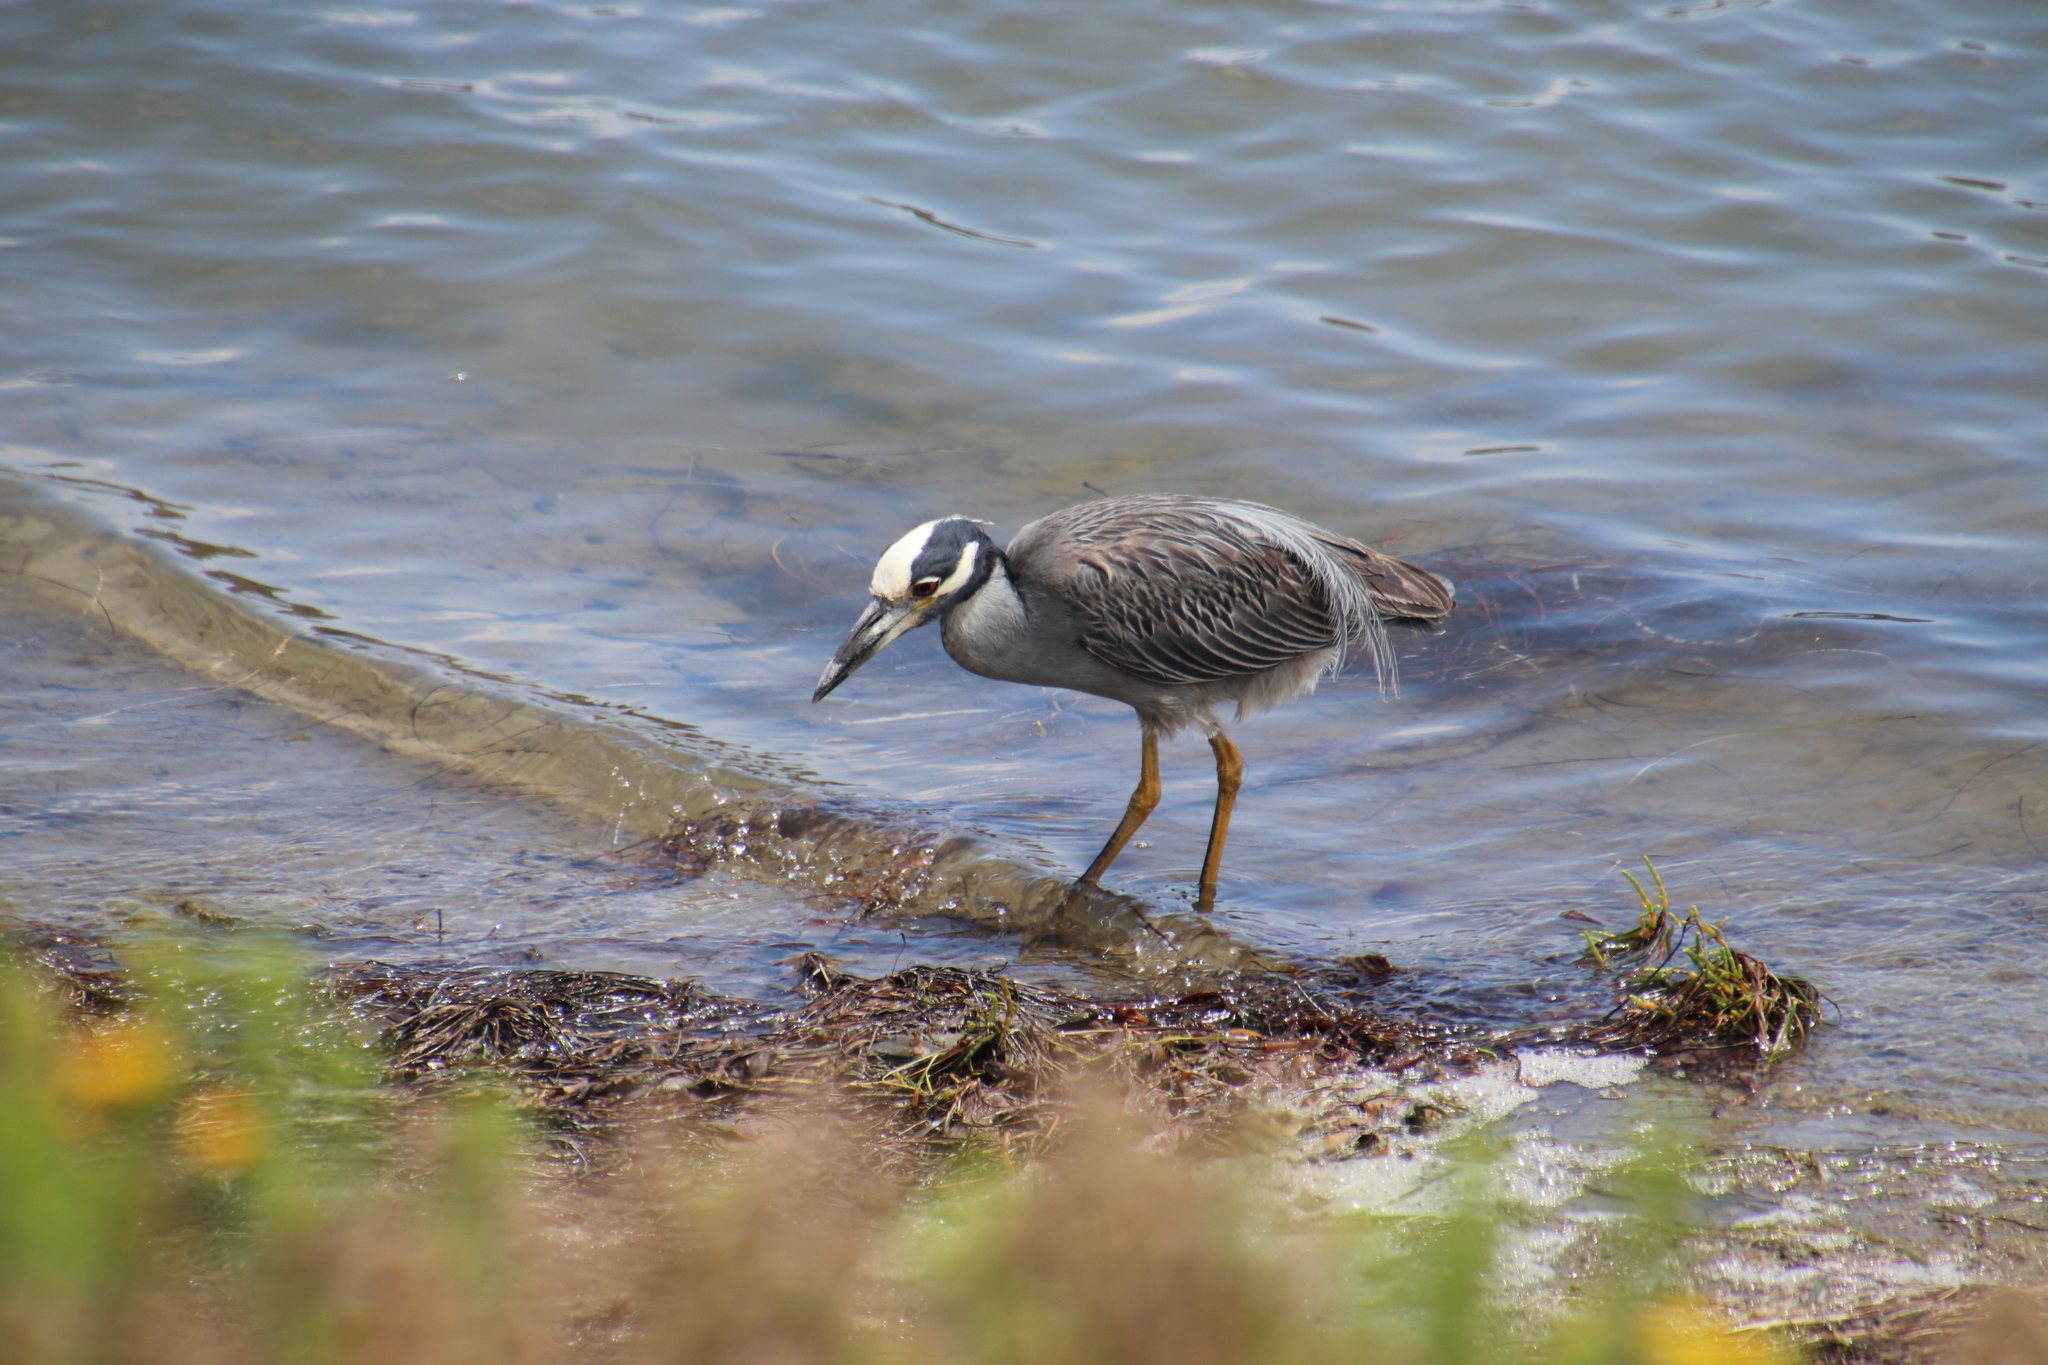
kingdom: Animalia
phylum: Chordata
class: Aves
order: Pelecaniformes
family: Ardeidae
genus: Nyctanassa
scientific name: Nyctanassa violacea
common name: Yellow-crowned night heron
